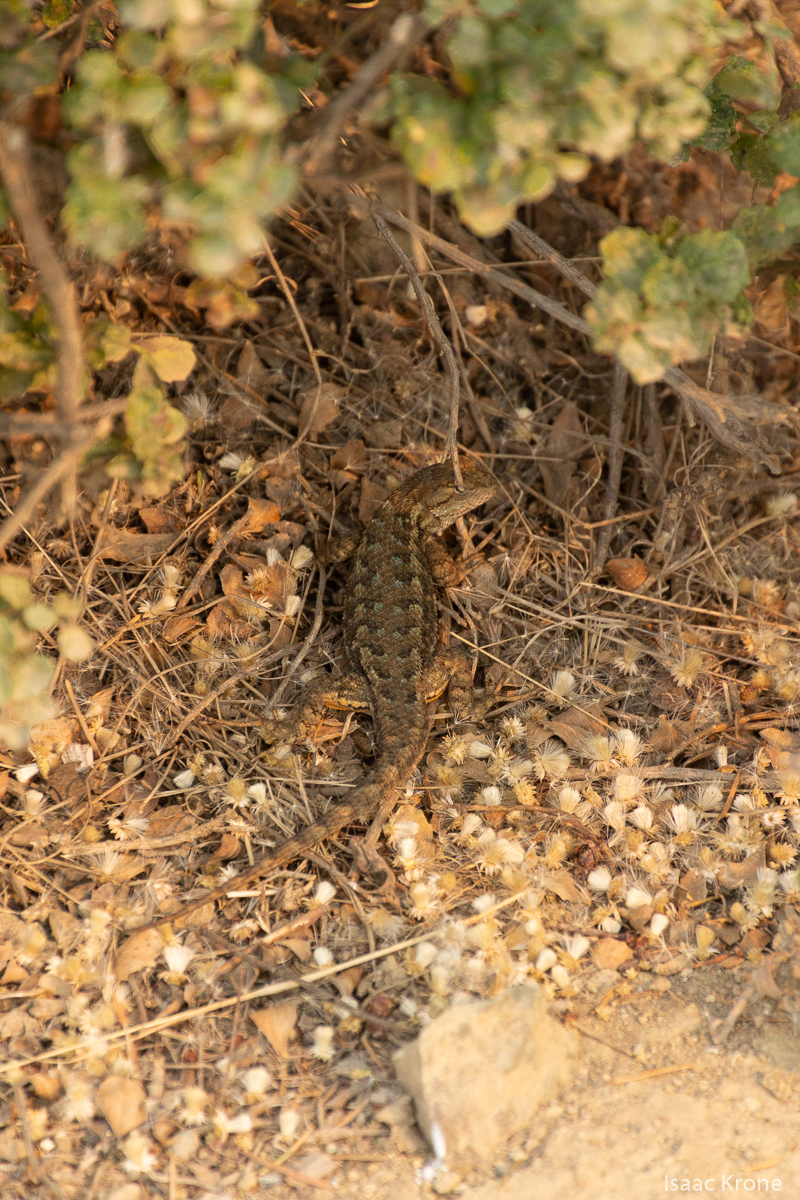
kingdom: Animalia
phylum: Chordata
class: Squamata
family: Phrynosomatidae
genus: Sceloporus
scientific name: Sceloporus occidentalis
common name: Western fence lizard
